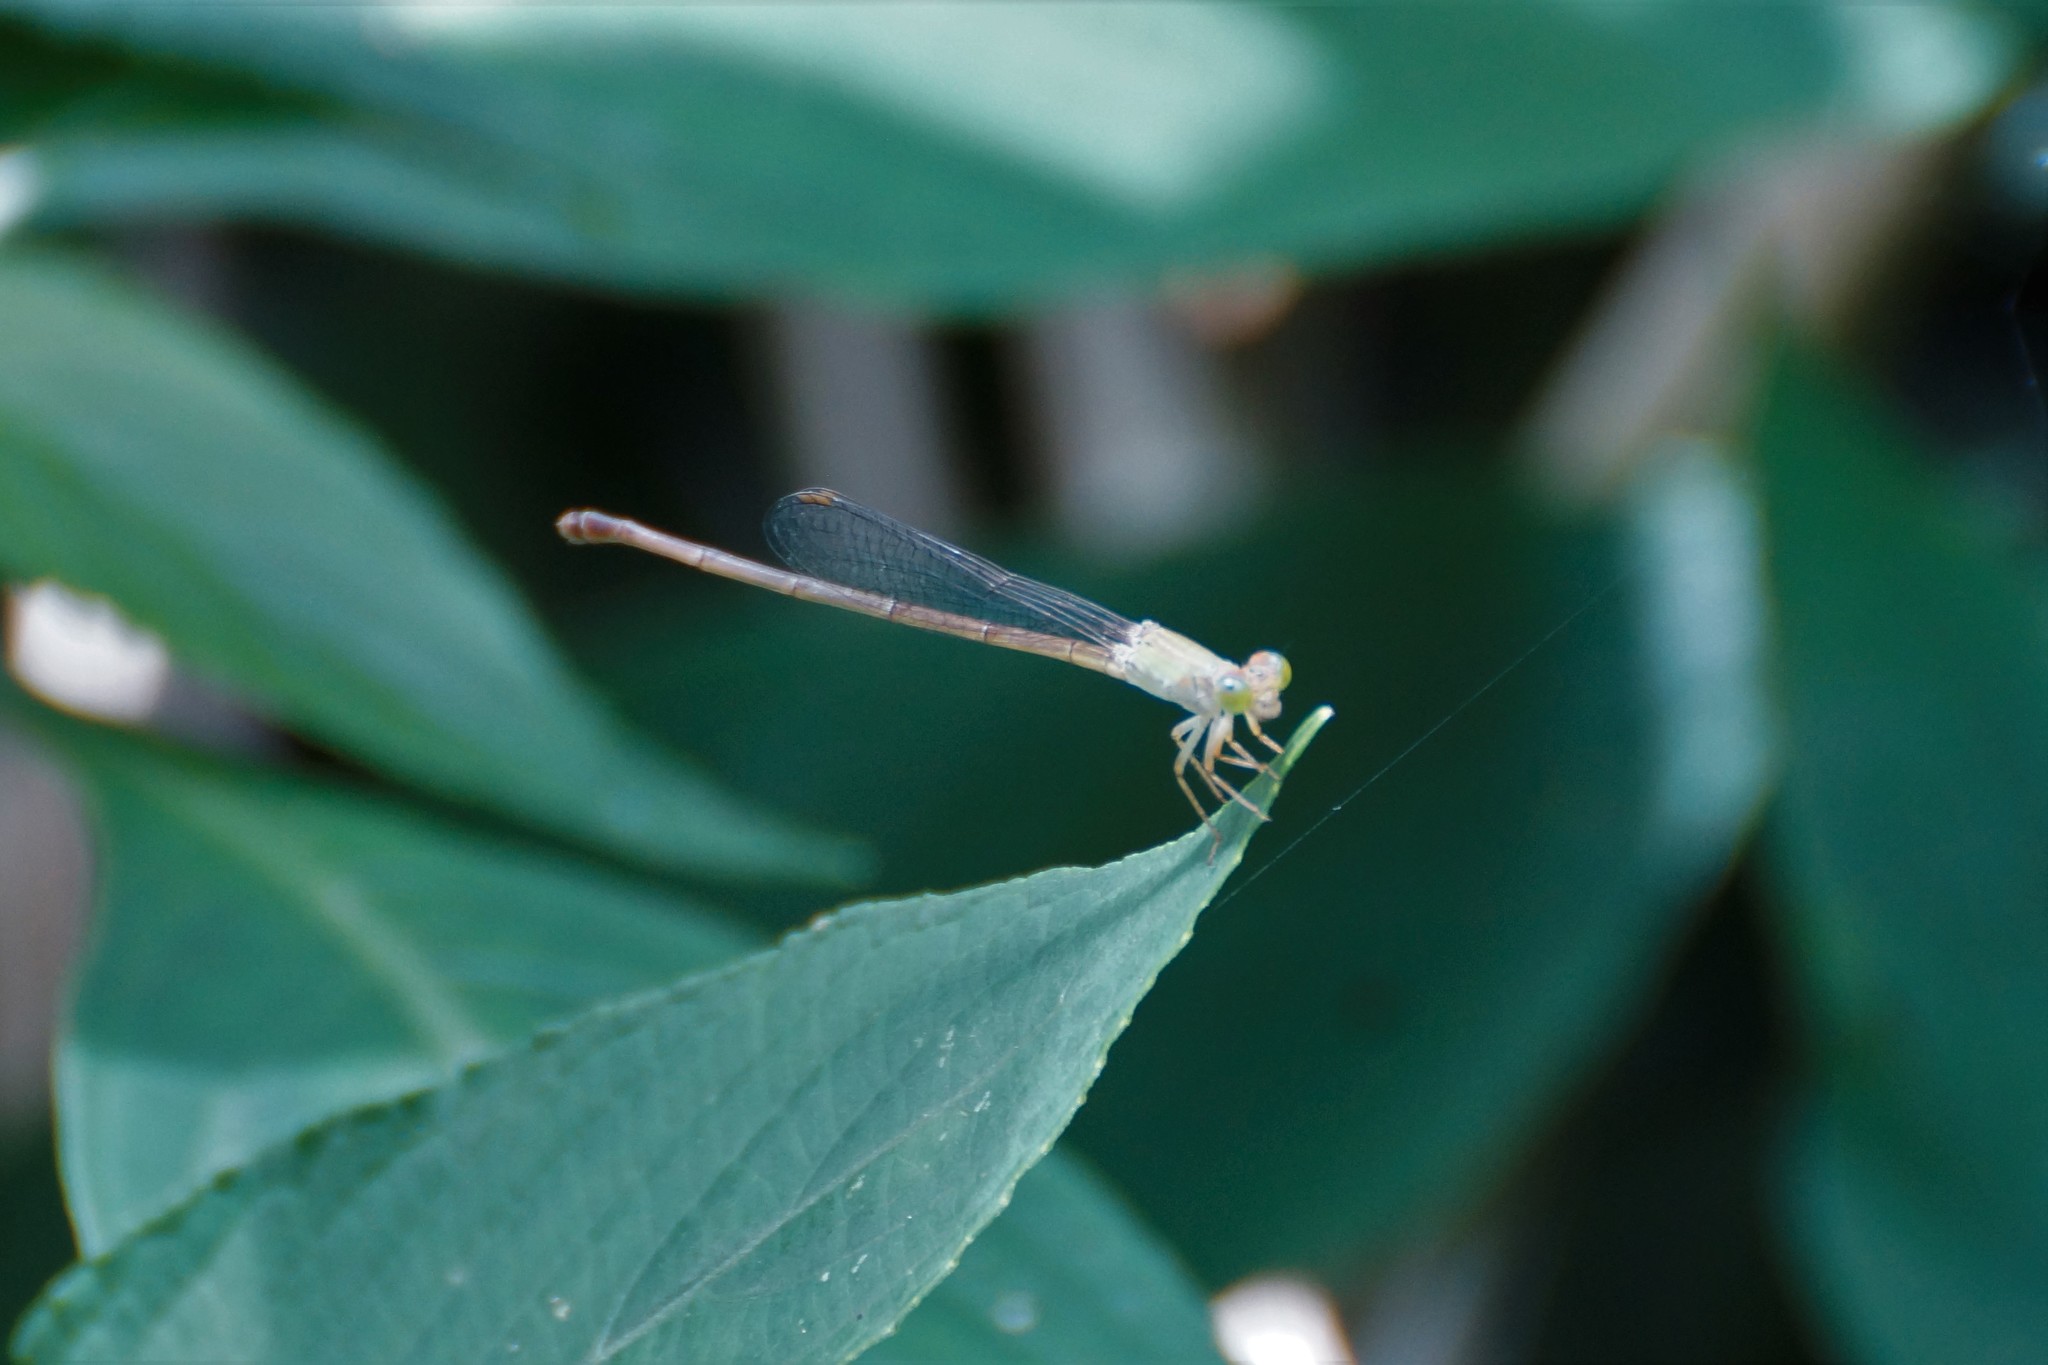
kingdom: Animalia
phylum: Arthropoda
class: Insecta
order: Odonata
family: Coenagrionidae
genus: Ceriagrion
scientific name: Ceriagrion aeruginosum
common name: Redtail
